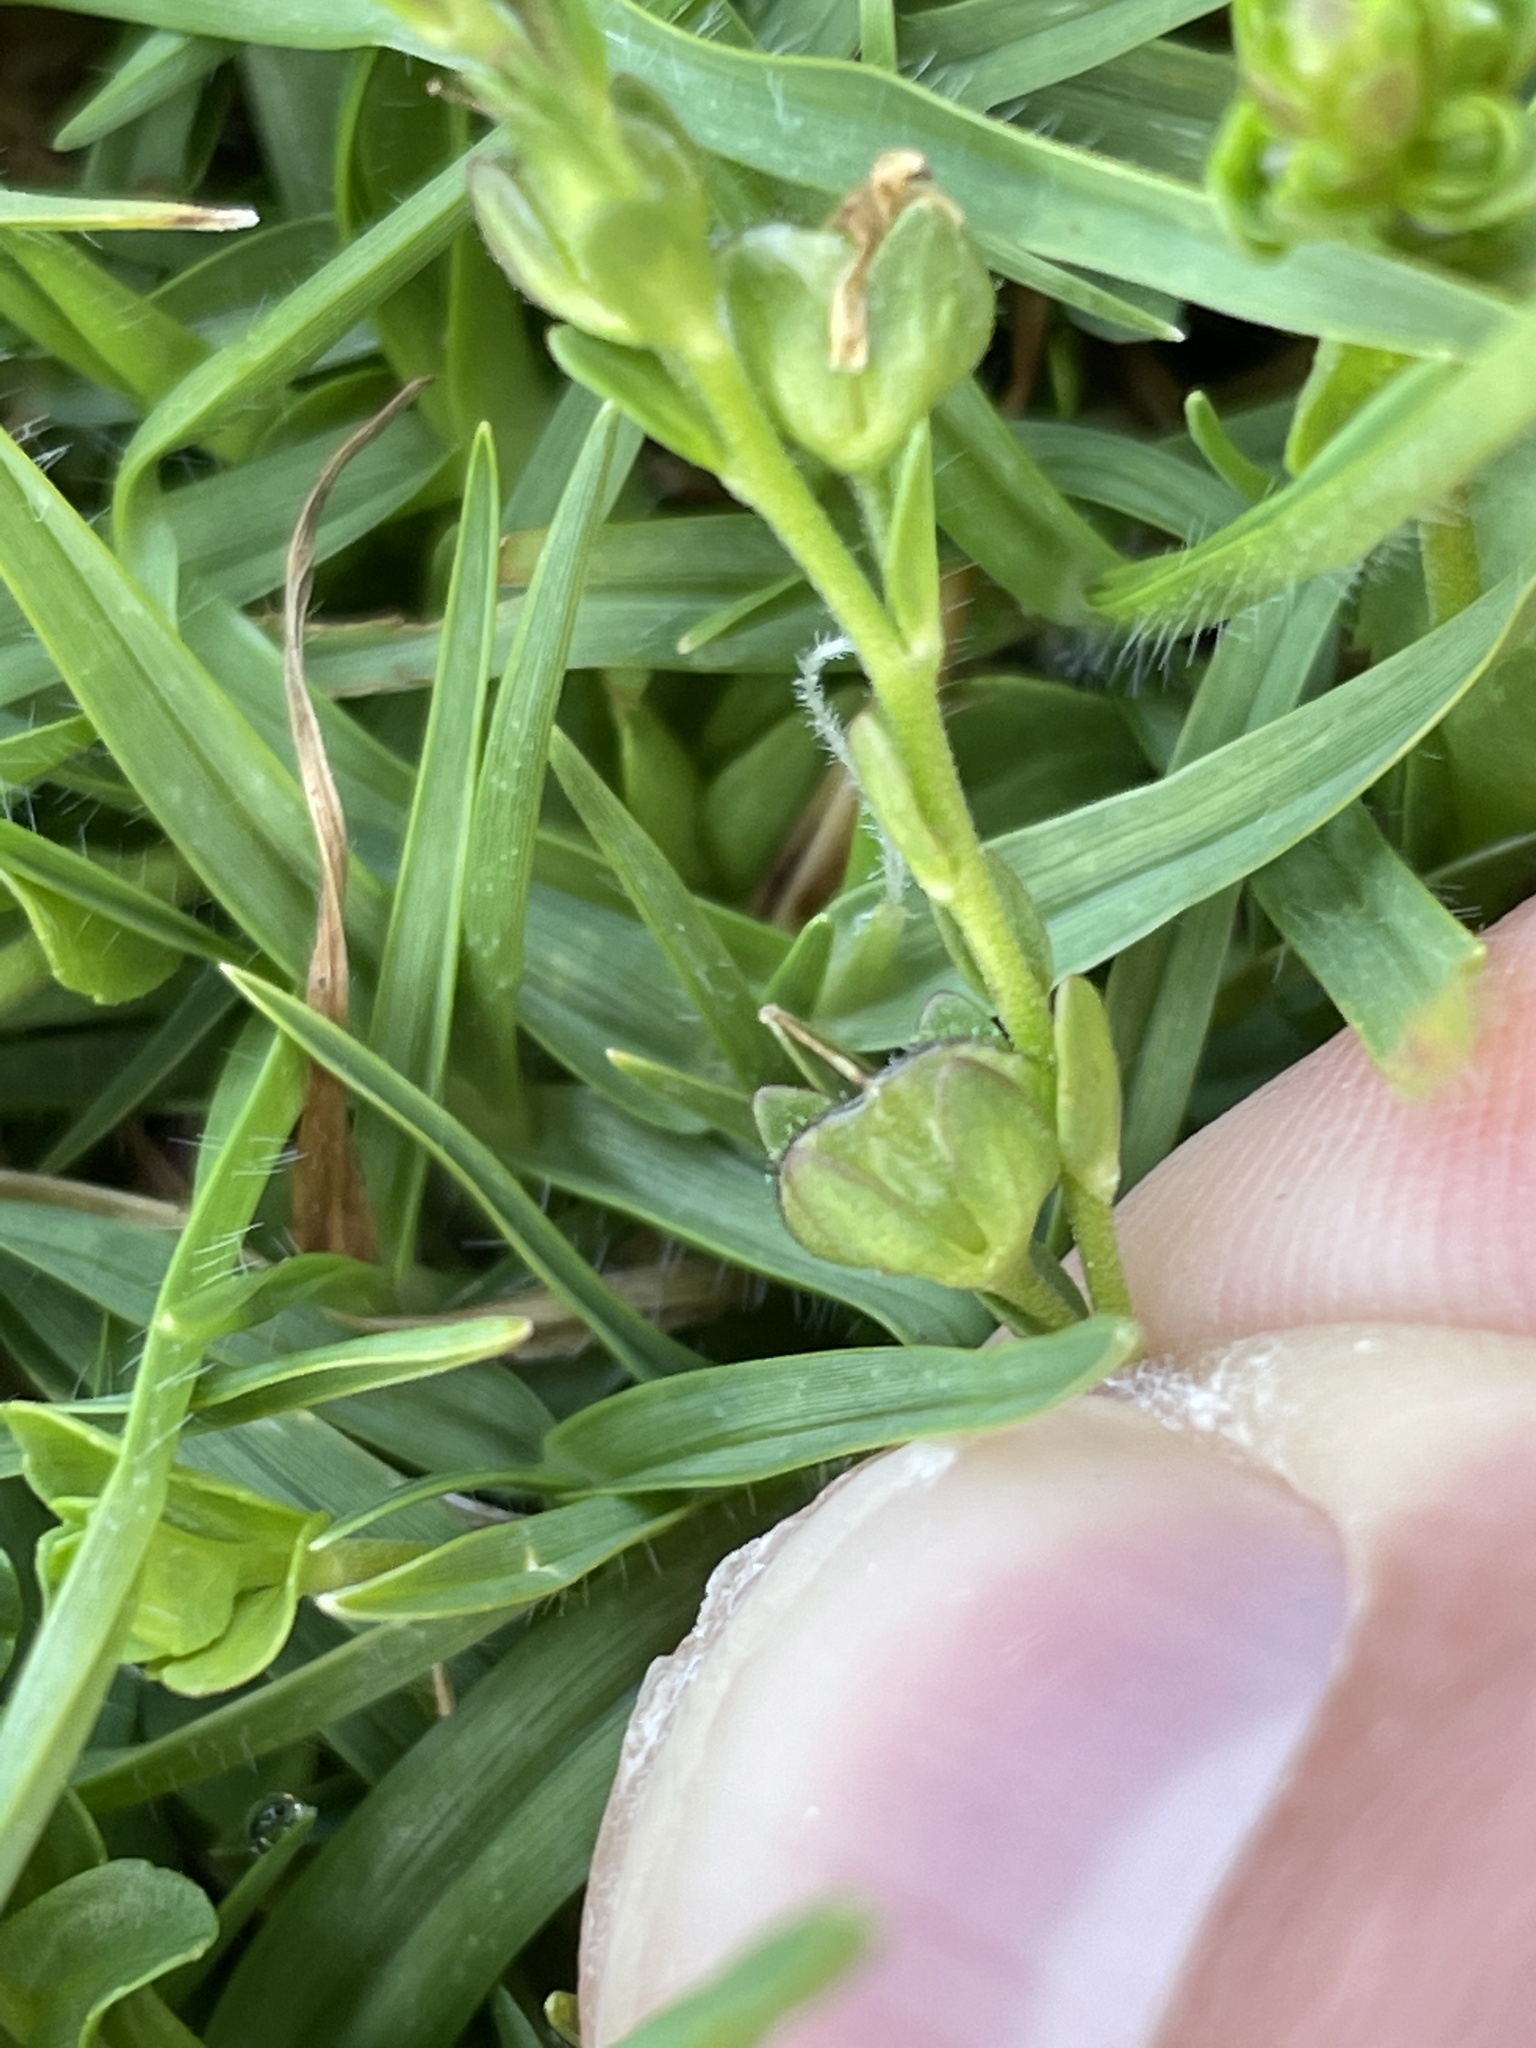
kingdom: Plantae
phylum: Tracheophyta
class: Magnoliopsida
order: Lamiales
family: Plantaginaceae
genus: Veronica
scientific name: Veronica serpyllifolia
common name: Thyme-leaved speedwell
